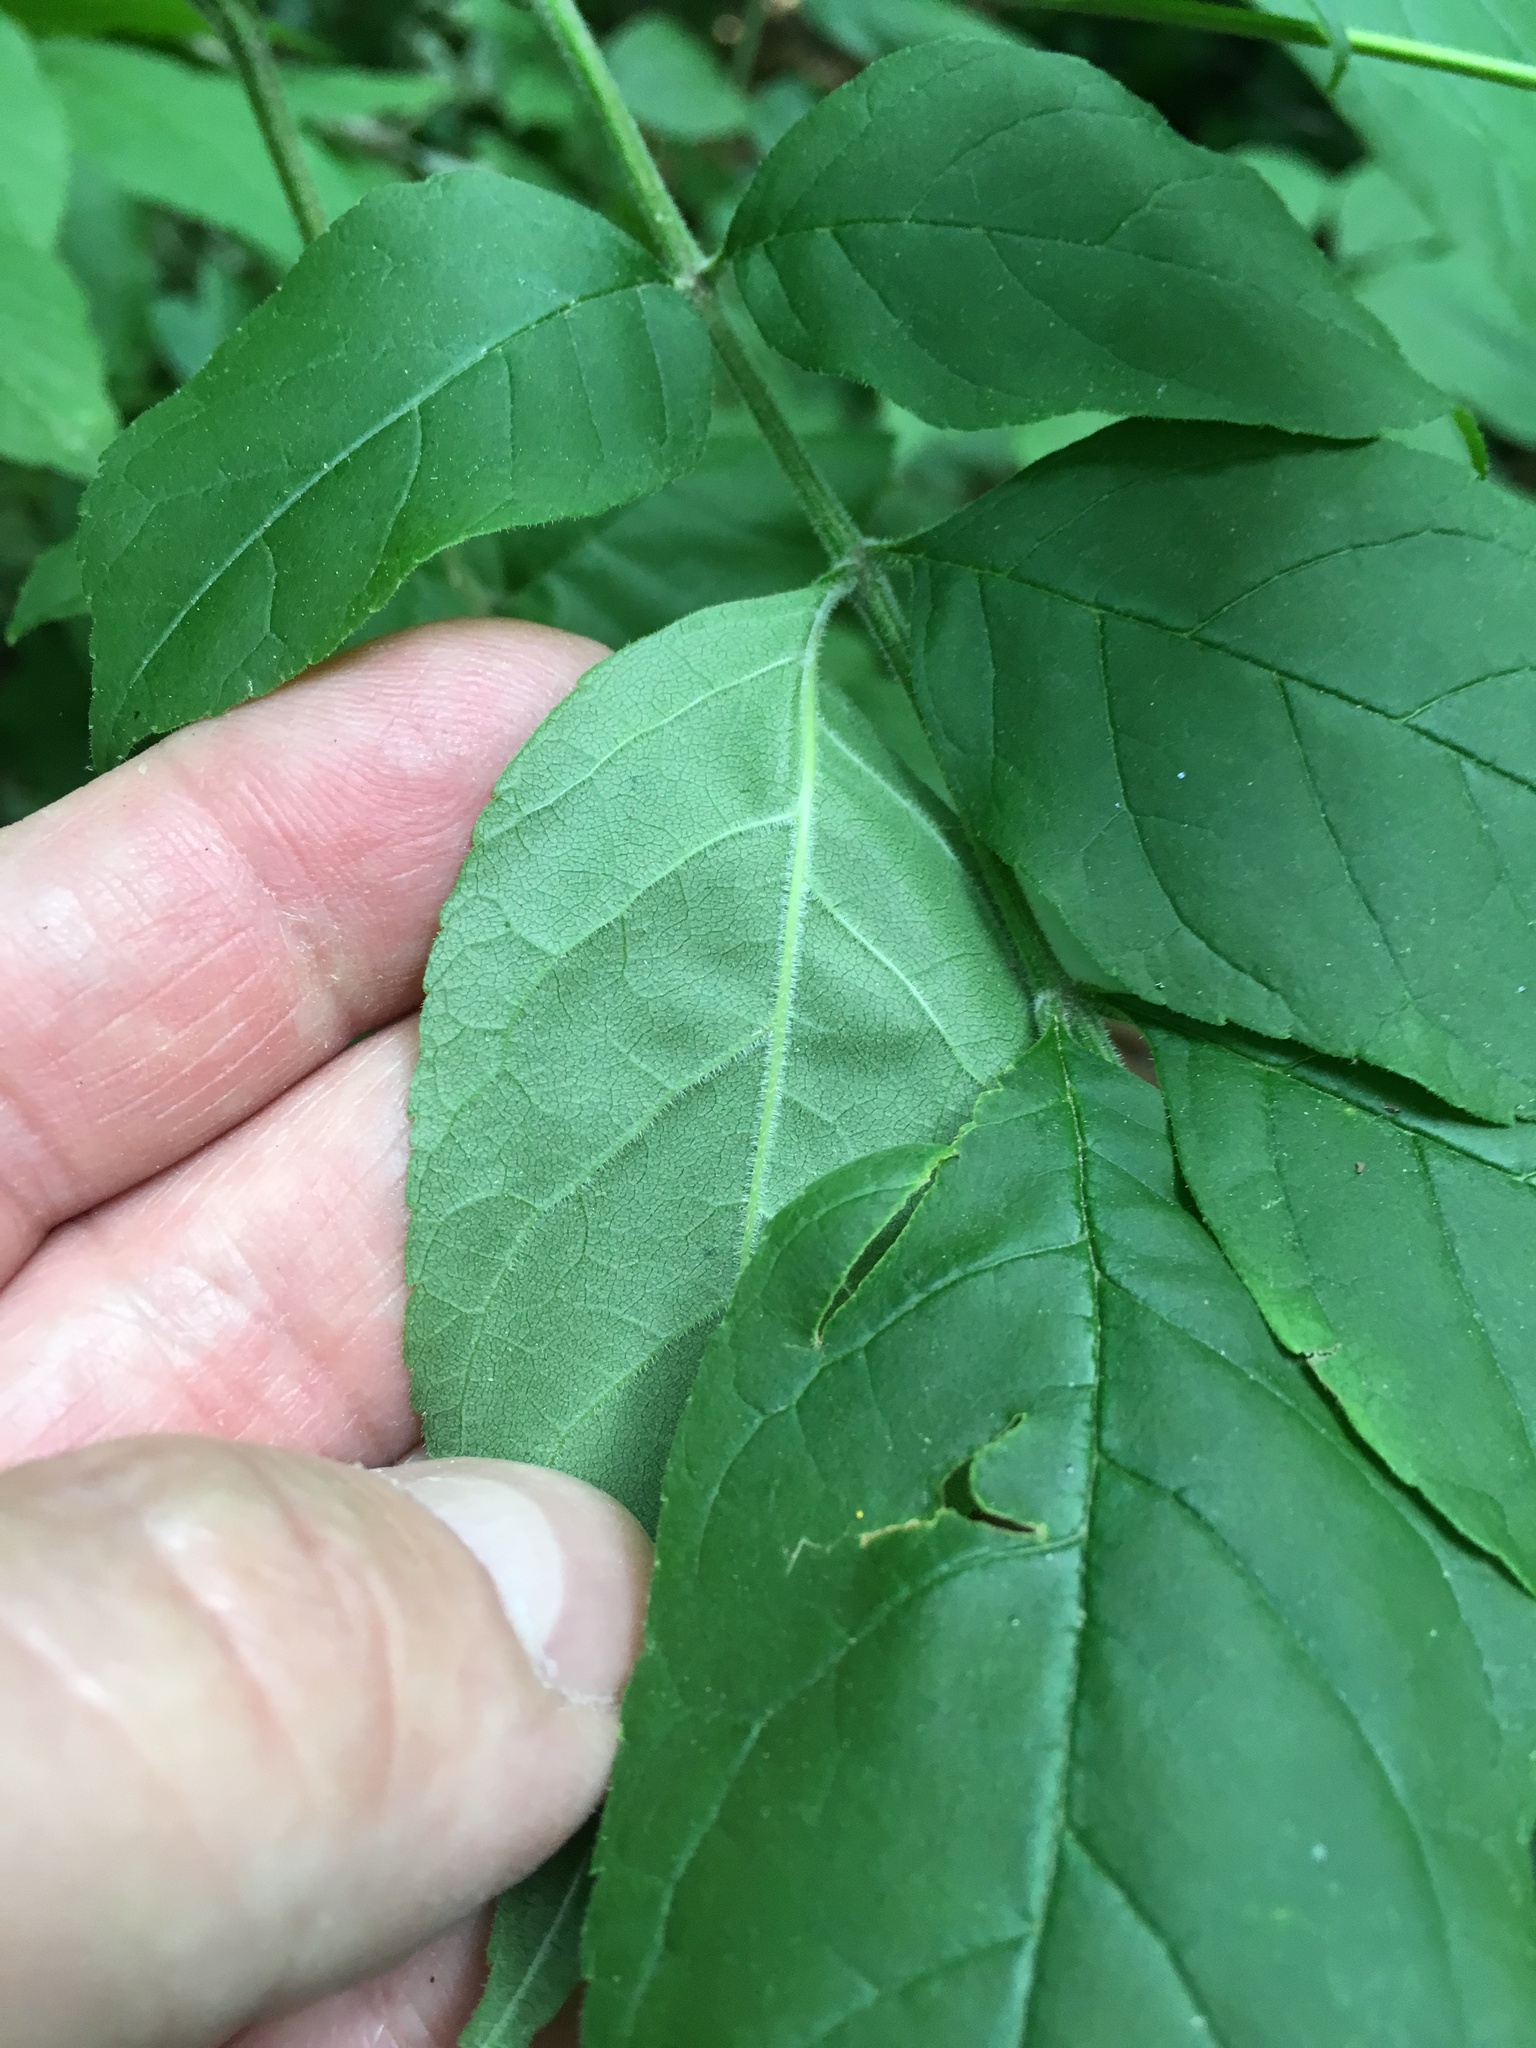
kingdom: Plantae
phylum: Tracheophyta
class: Magnoliopsida
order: Lamiales
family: Oleaceae
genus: Fraxinus
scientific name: Fraxinus pennsylvanica
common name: Green ash
